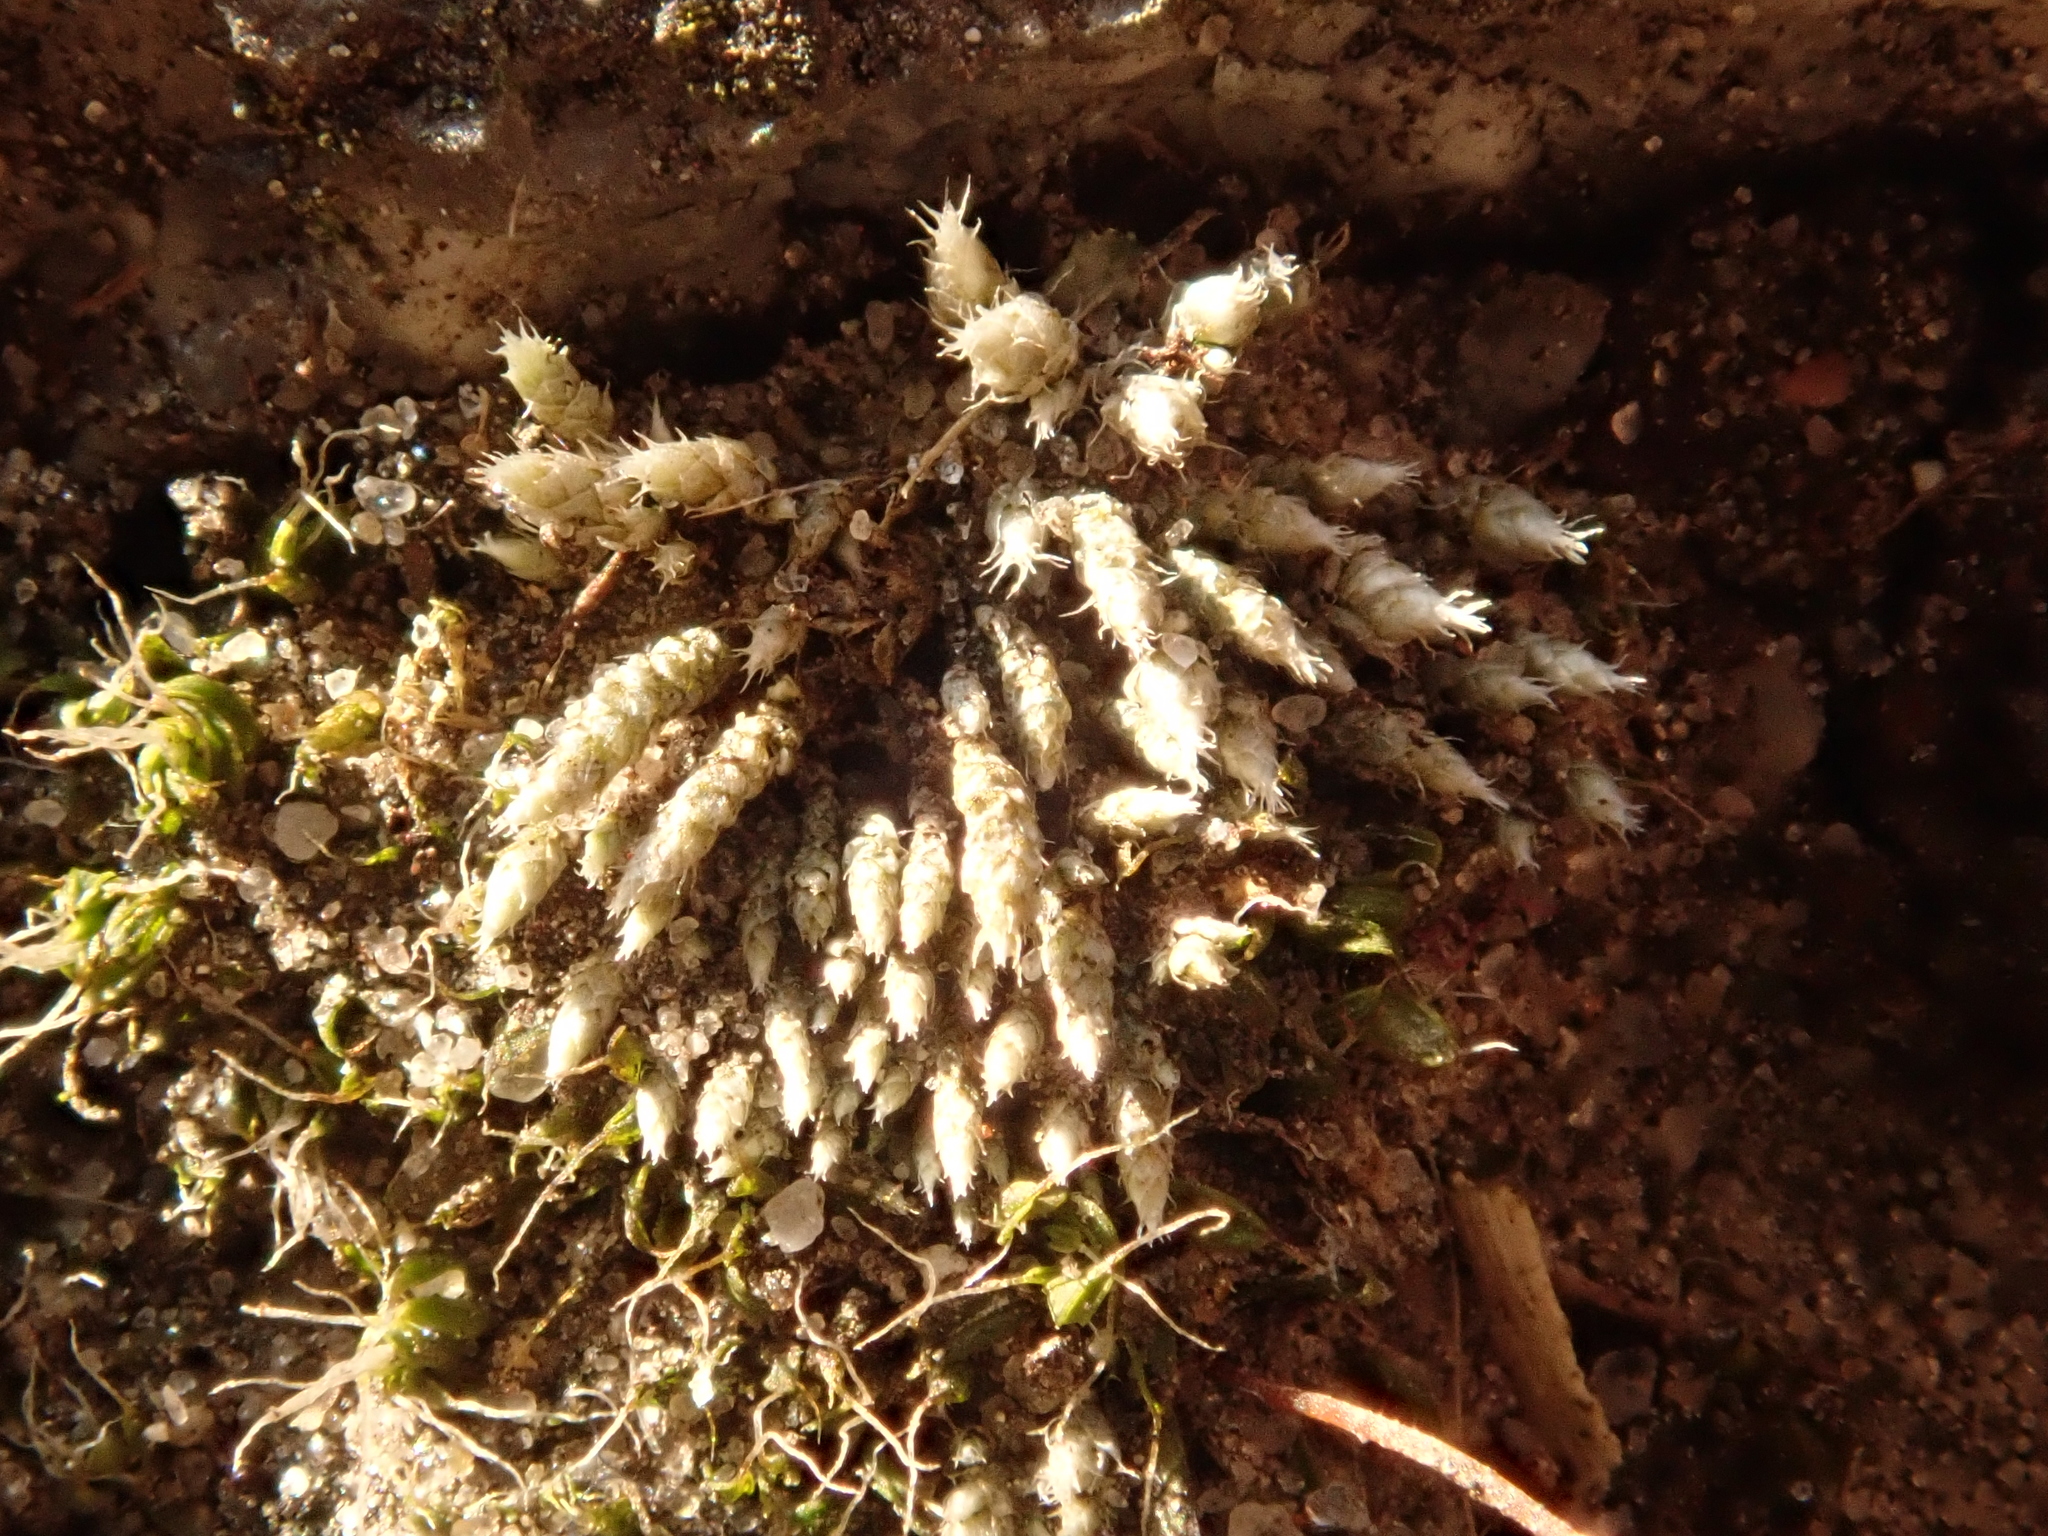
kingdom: Plantae
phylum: Bryophyta
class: Bryopsida
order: Bryales
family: Bryaceae
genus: Bryum
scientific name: Bryum argenteum
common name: Silver-moss
